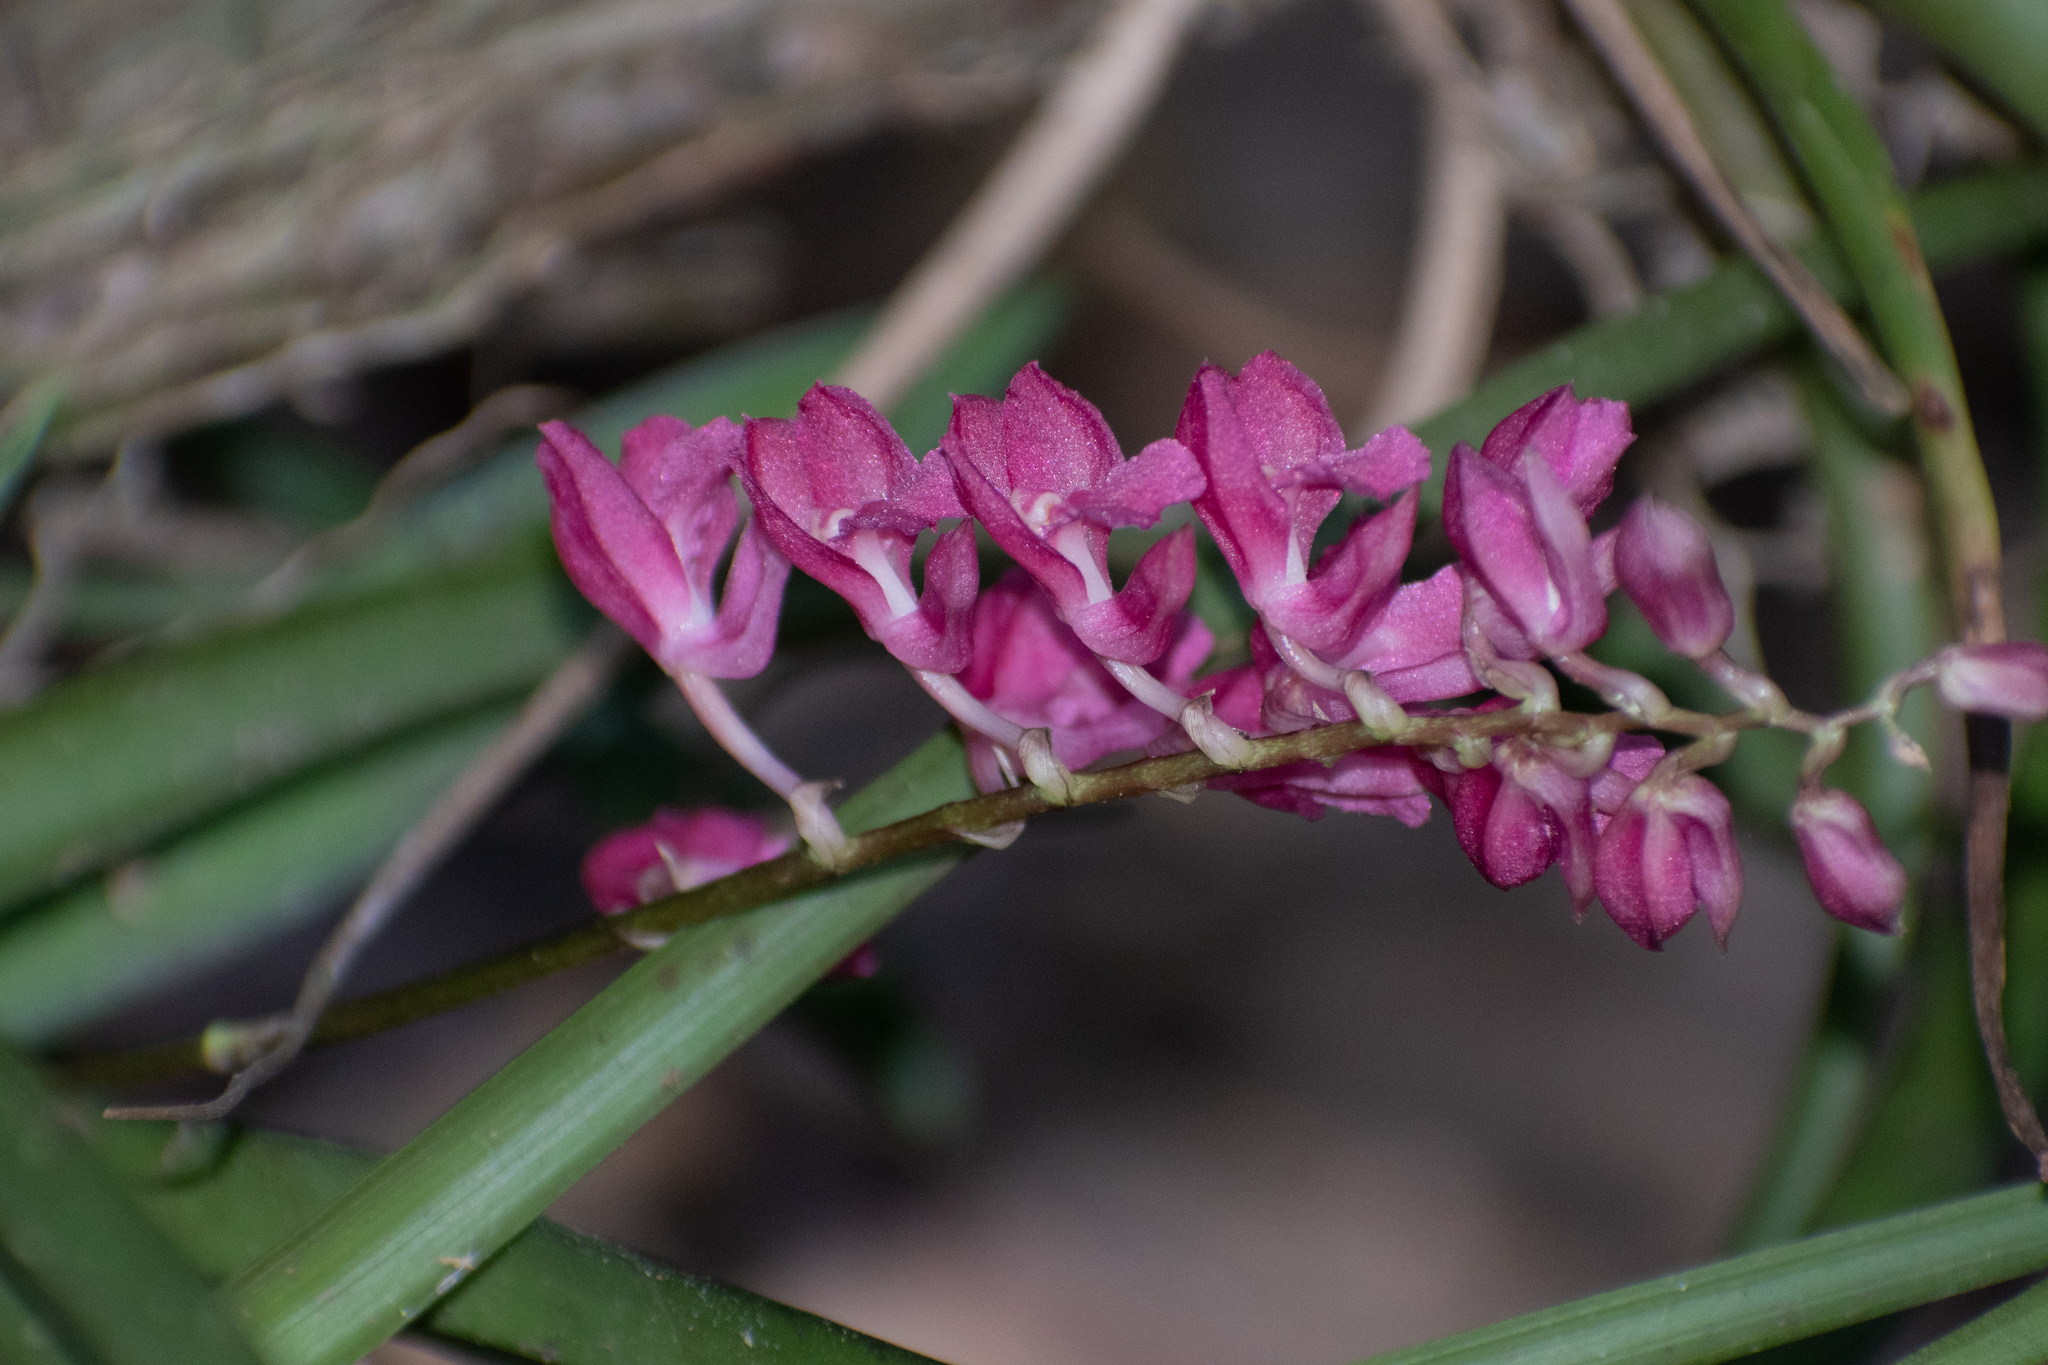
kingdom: Plantae
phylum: Tracheophyta
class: Liliopsida
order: Asparagales
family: Orchidaceae
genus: Rodriguezia
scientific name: Rodriguezia lanceolata
